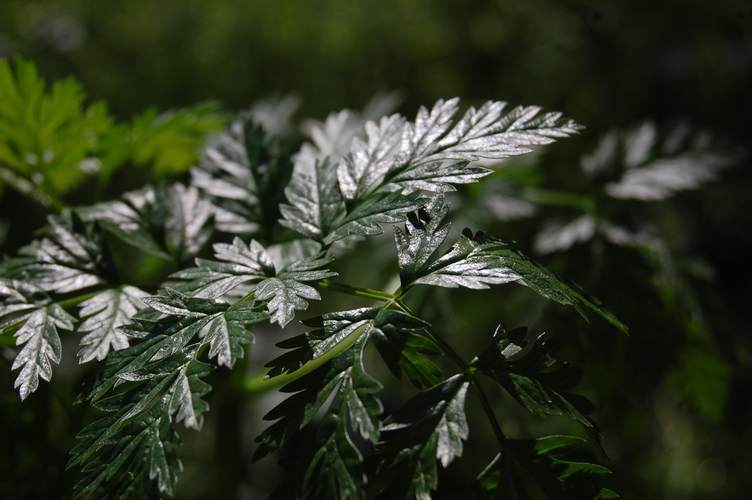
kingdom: Plantae
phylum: Tracheophyta
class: Magnoliopsida
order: Apiales
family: Apiaceae
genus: Conium
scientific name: Conium maculatum
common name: Hemlock
